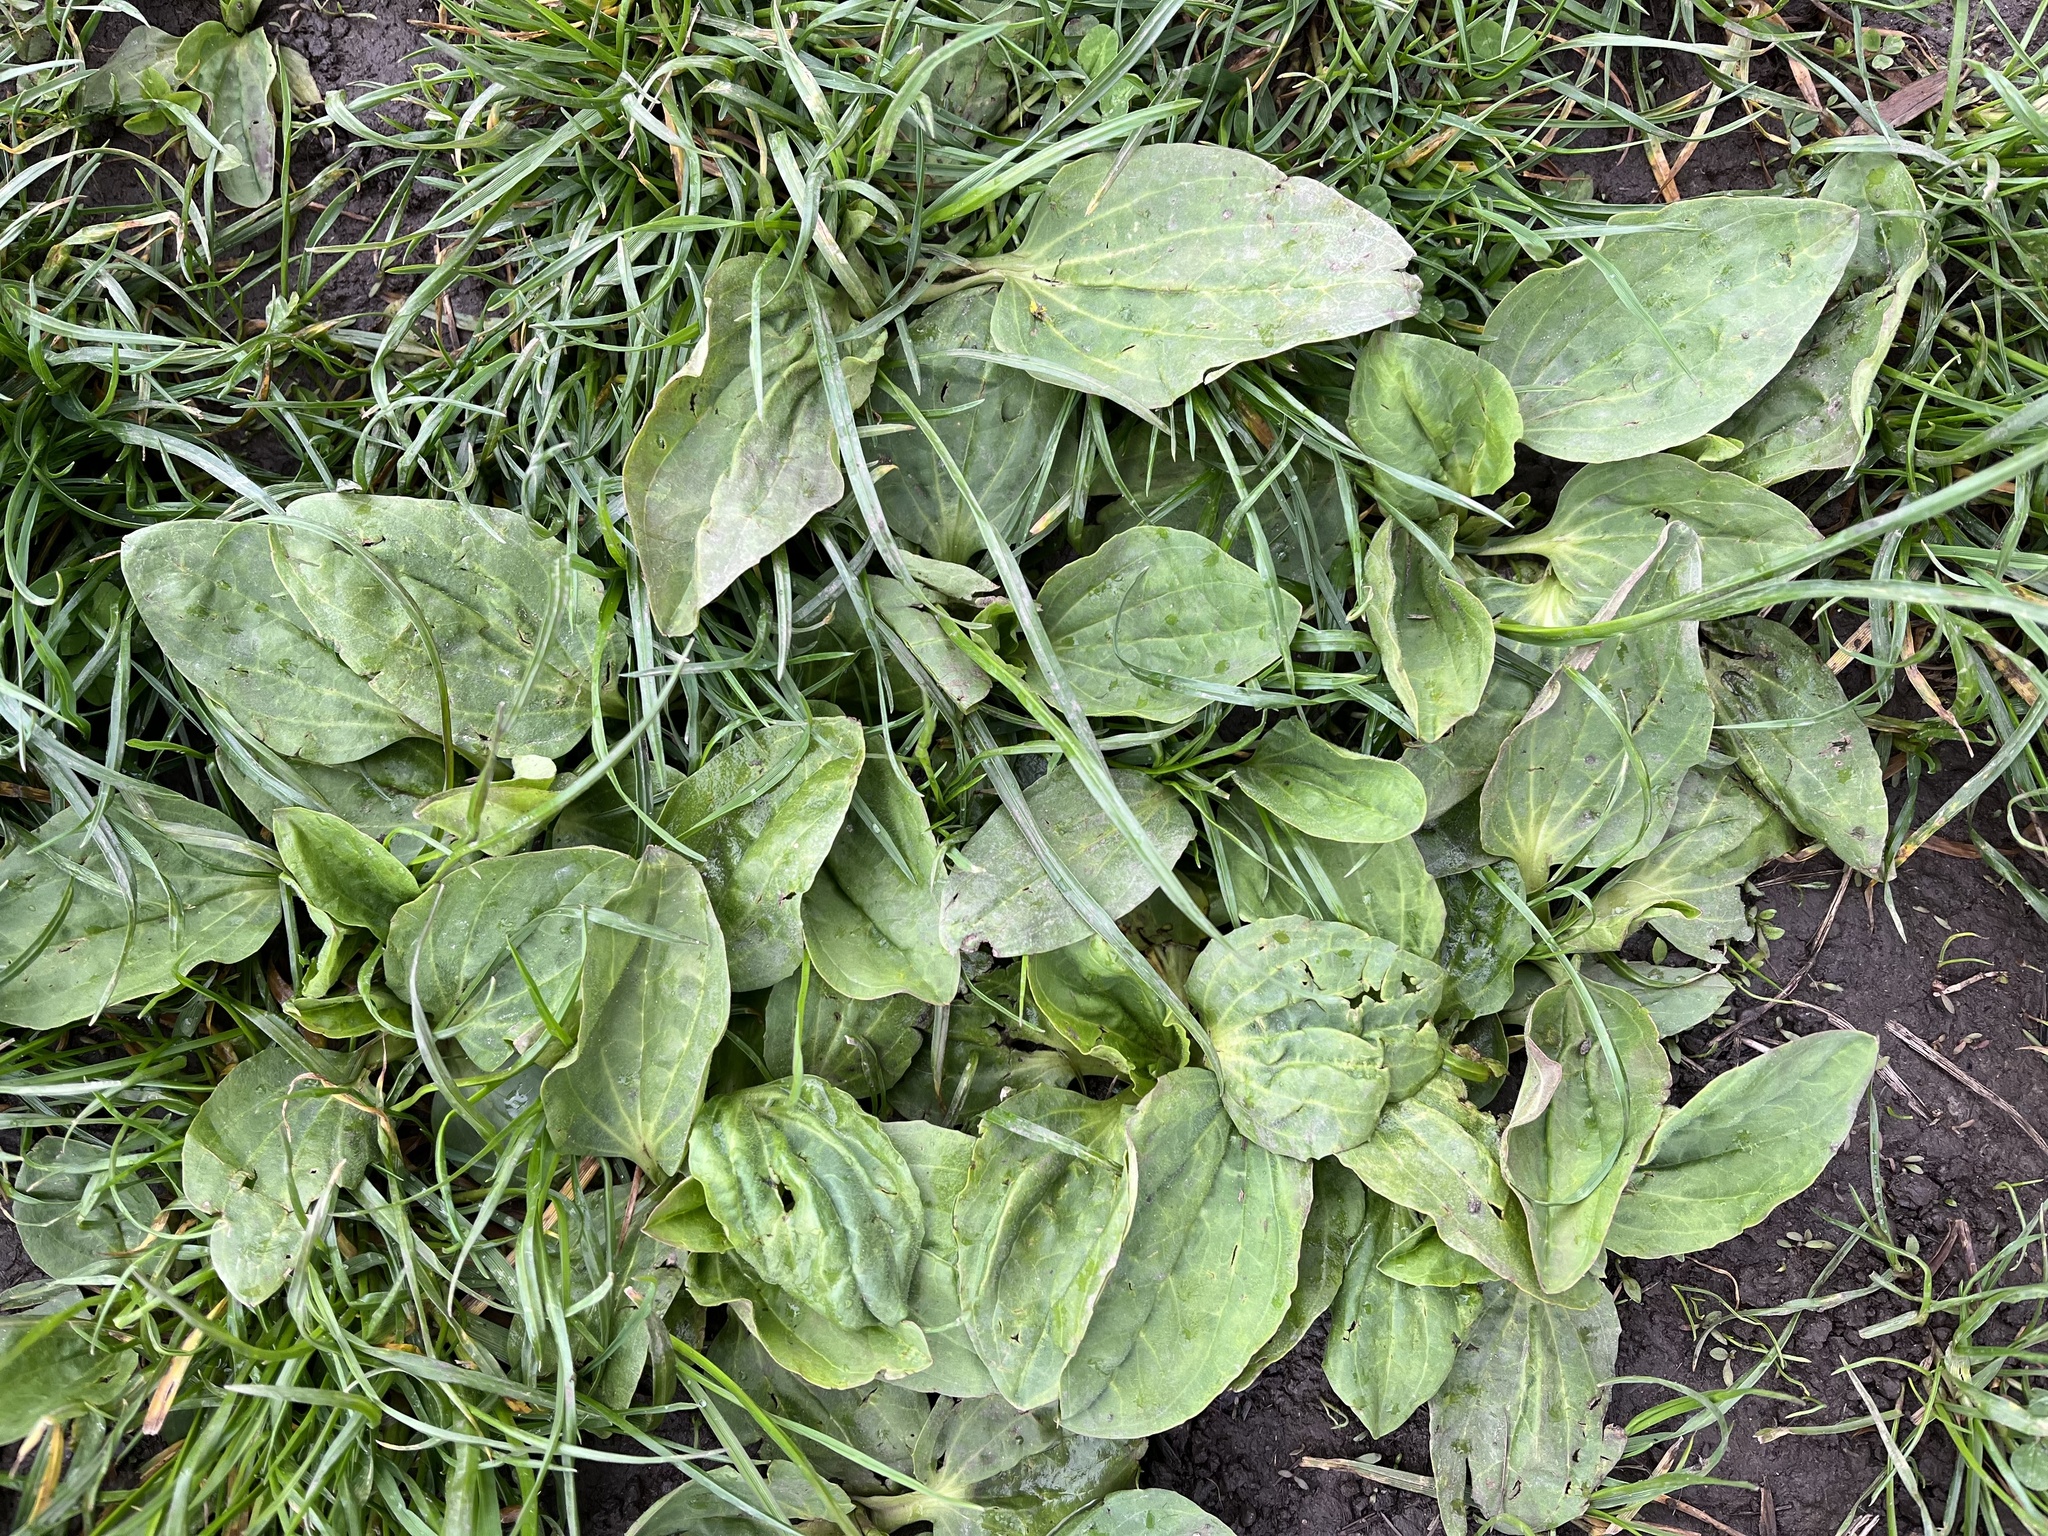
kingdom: Plantae
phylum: Tracheophyta
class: Magnoliopsida
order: Lamiales
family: Plantaginaceae
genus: Plantago
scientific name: Plantago major
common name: Common plantain
